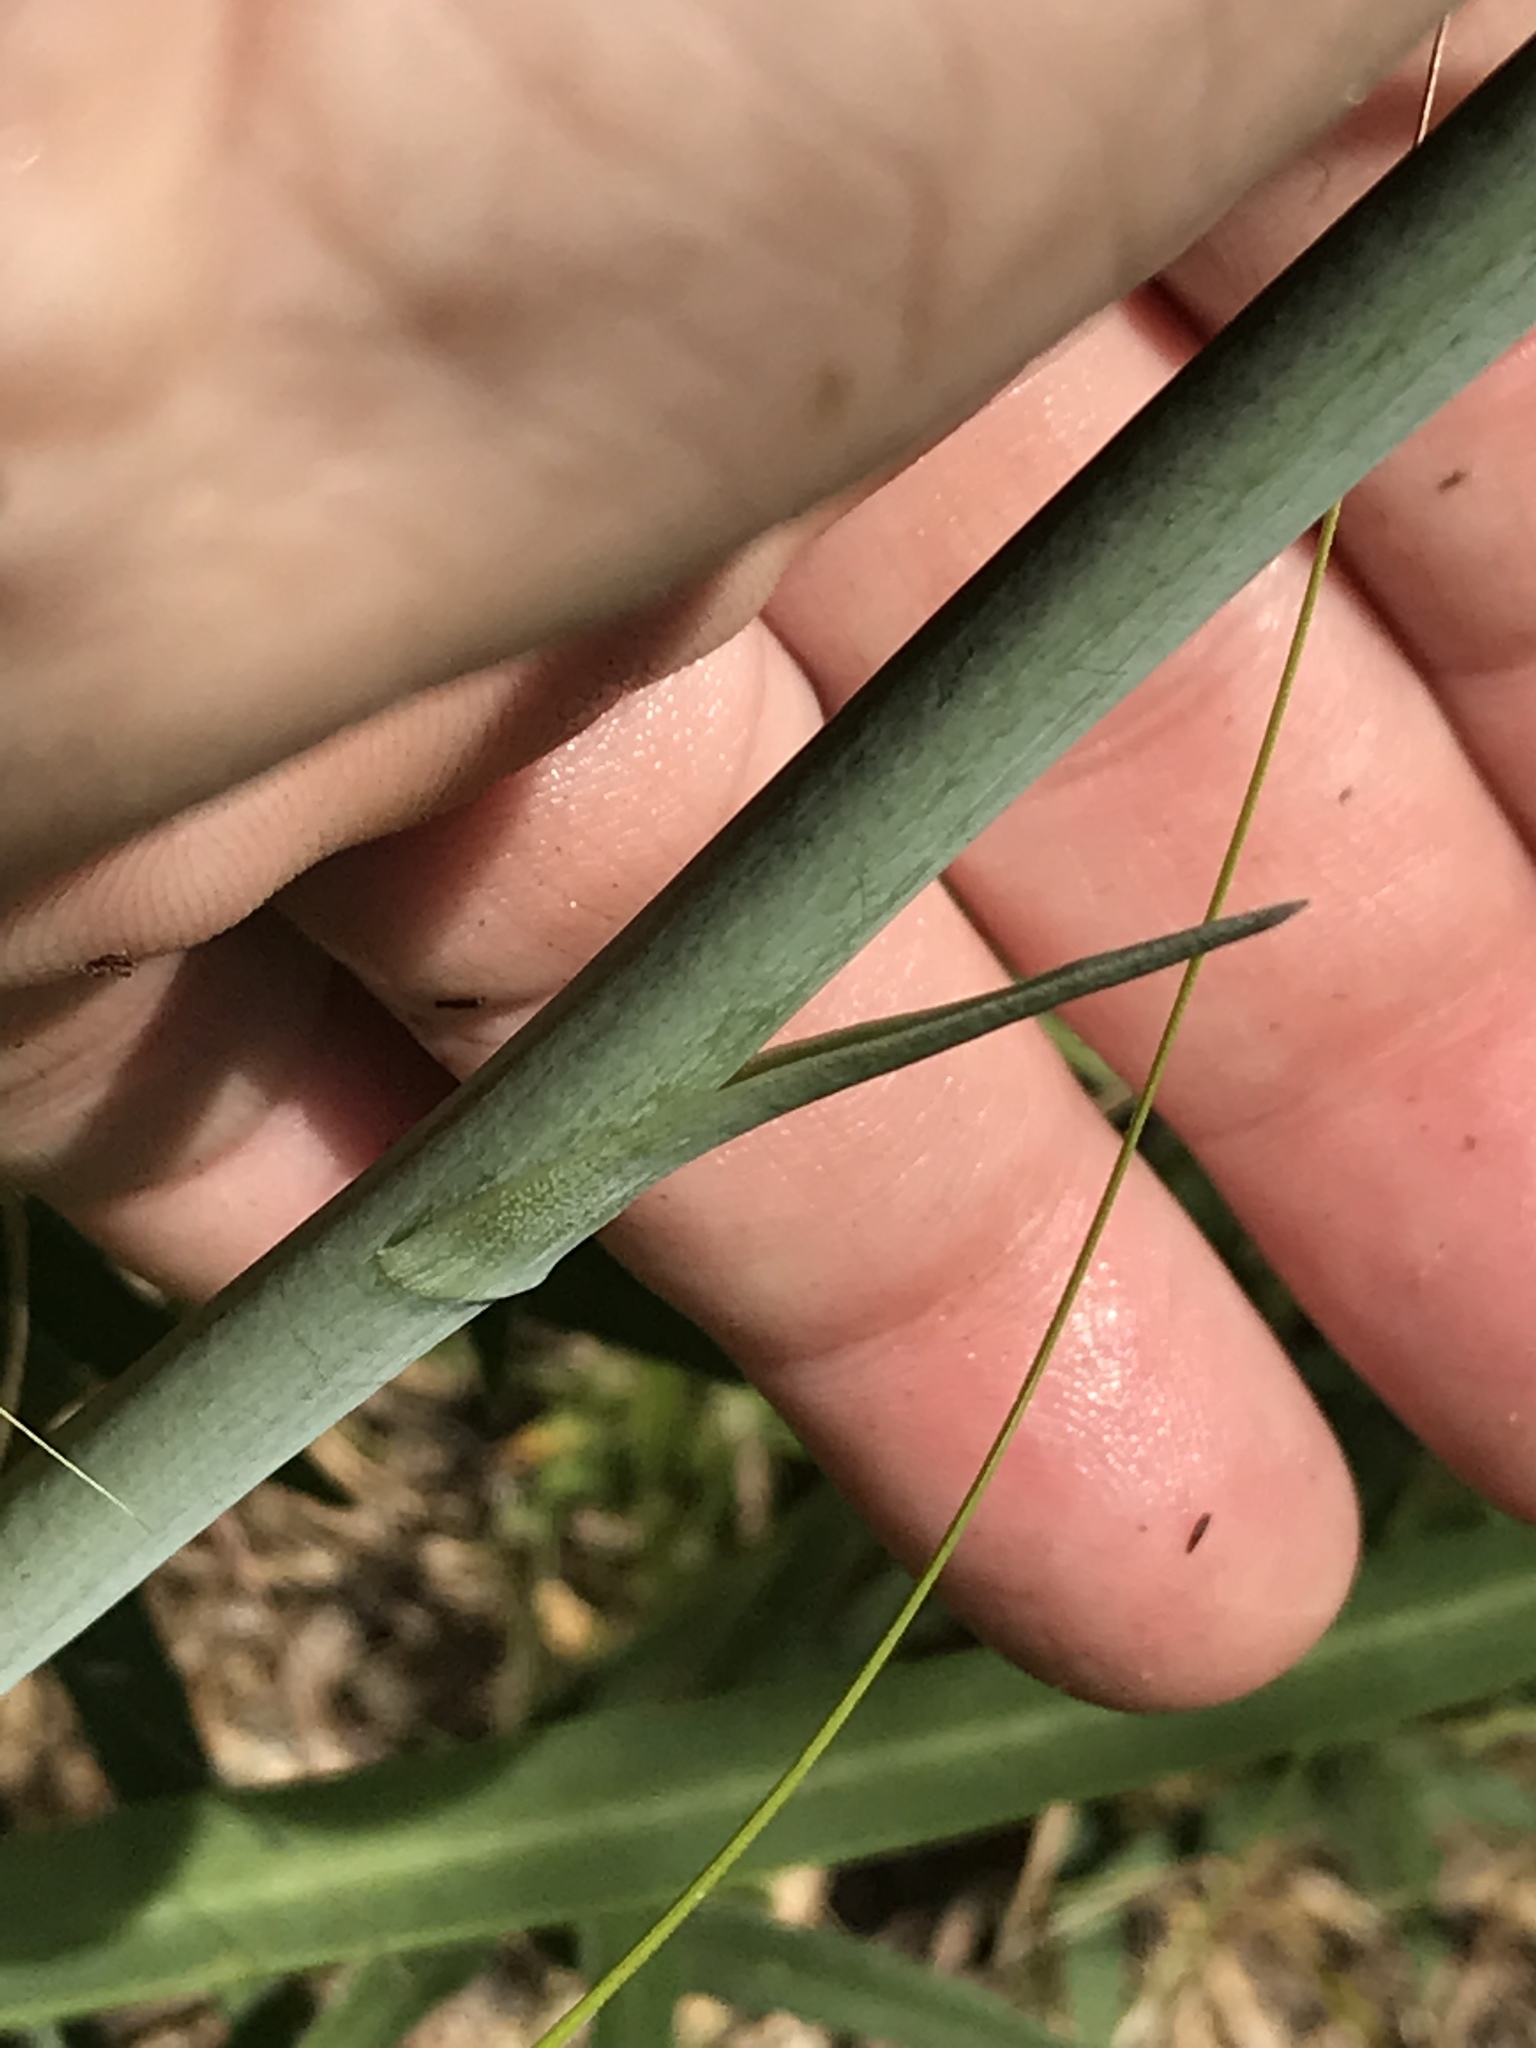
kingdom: Plantae
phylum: Tracheophyta
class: Liliopsida
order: Asparagales
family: Asparagaceae
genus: Agave
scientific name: Agave virginica
